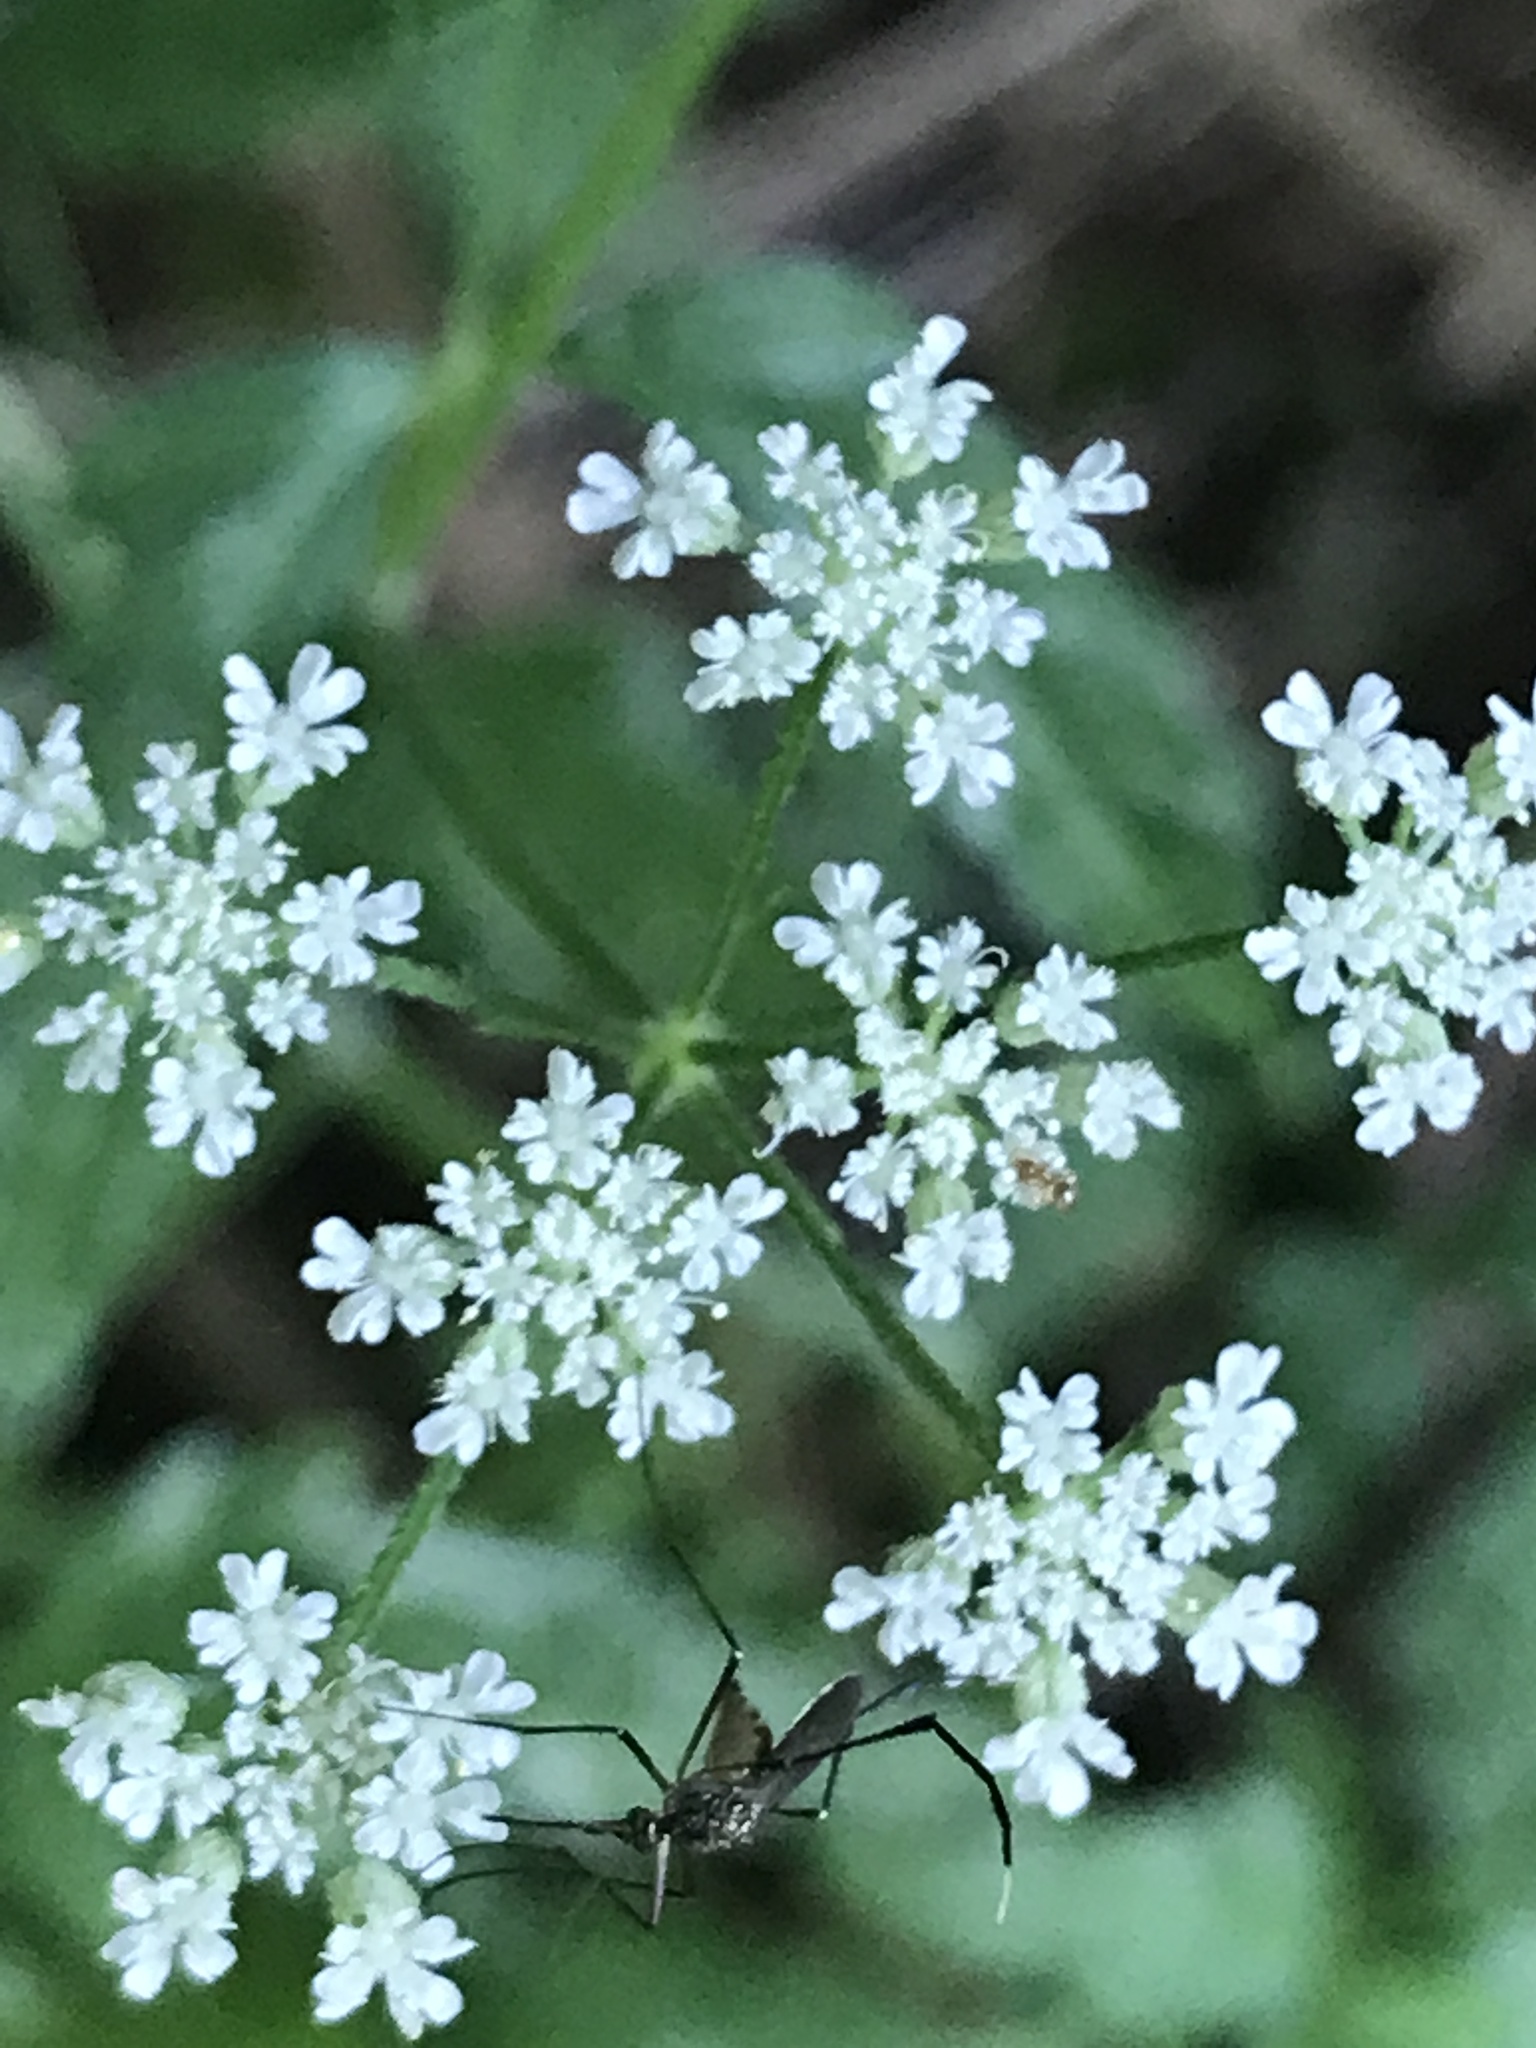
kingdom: Animalia
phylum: Arthropoda
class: Insecta
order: Diptera
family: Culicidae
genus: Psorophora
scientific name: Psorophora ferox
